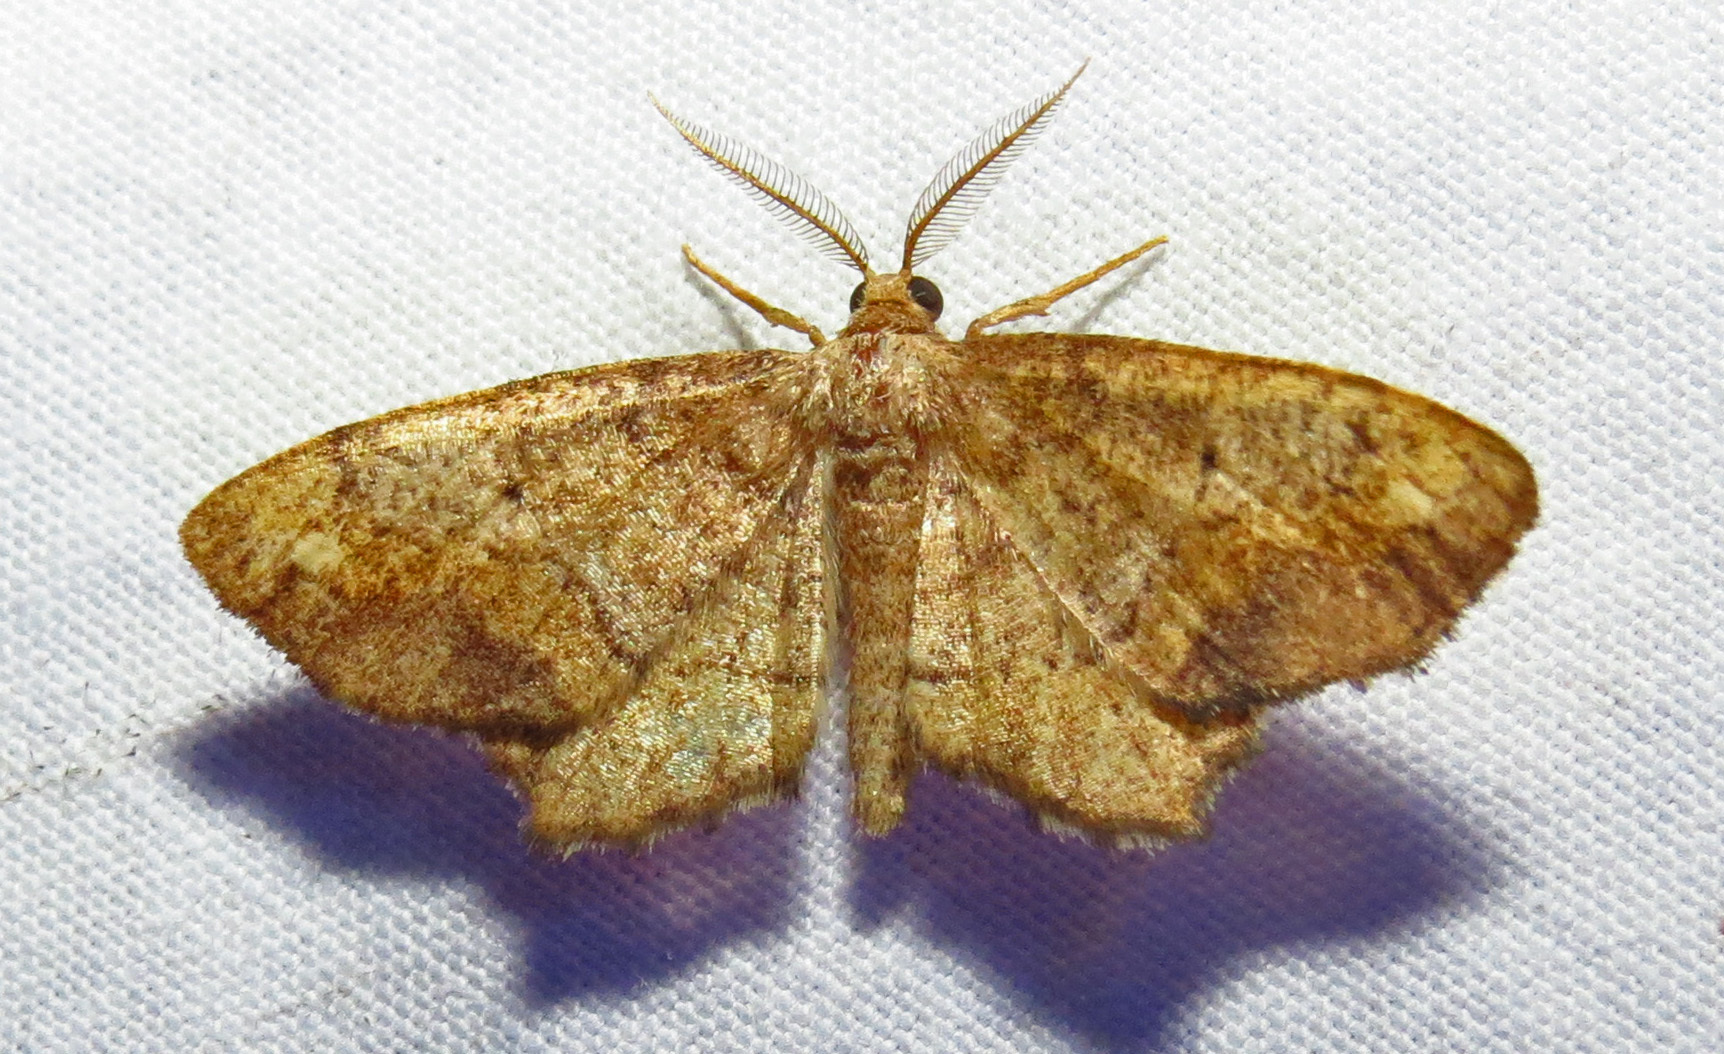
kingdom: Animalia
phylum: Arthropoda
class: Insecta
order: Lepidoptera
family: Geometridae
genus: Hypagyrtis
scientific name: Hypagyrtis unipunctata
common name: One-spotted variant
